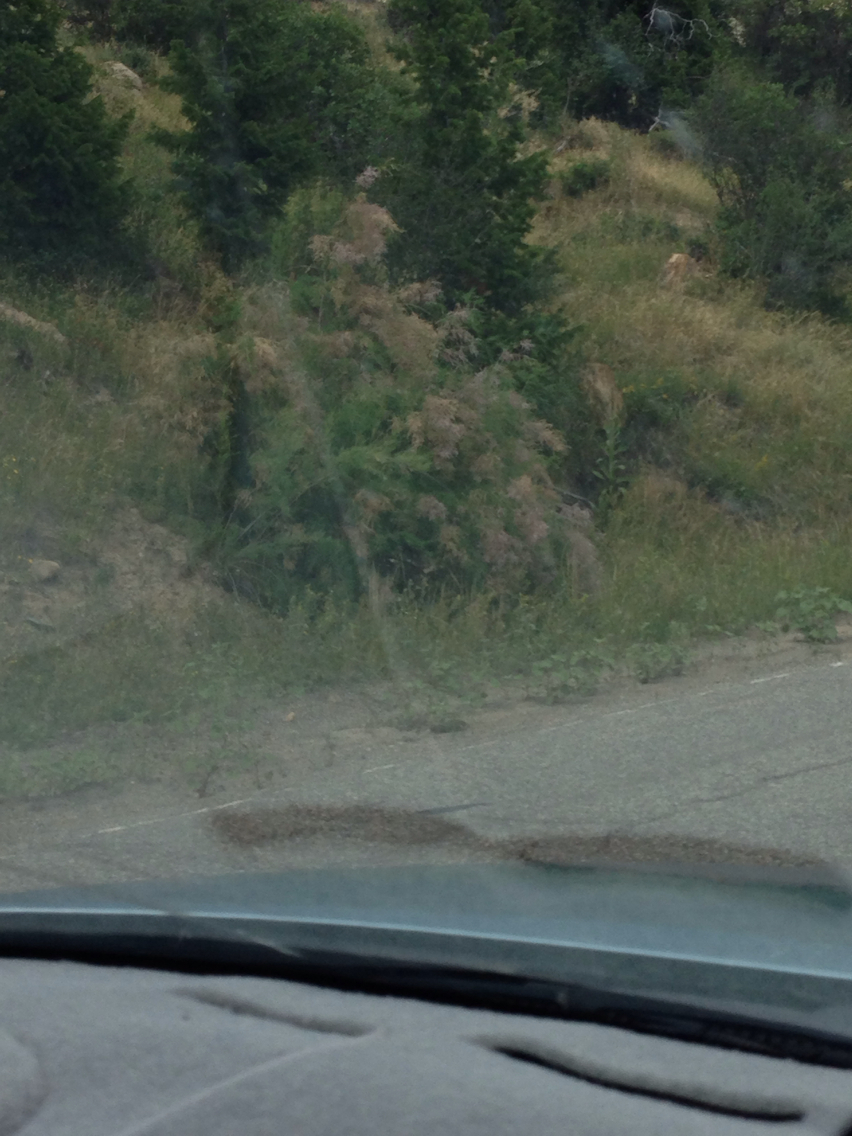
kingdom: Plantae
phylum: Tracheophyta
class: Magnoliopsida
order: Caryophyllales
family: Tamaricaceae
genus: Tamarix
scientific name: Tamarix ramosissima
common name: Pink tamarisk
